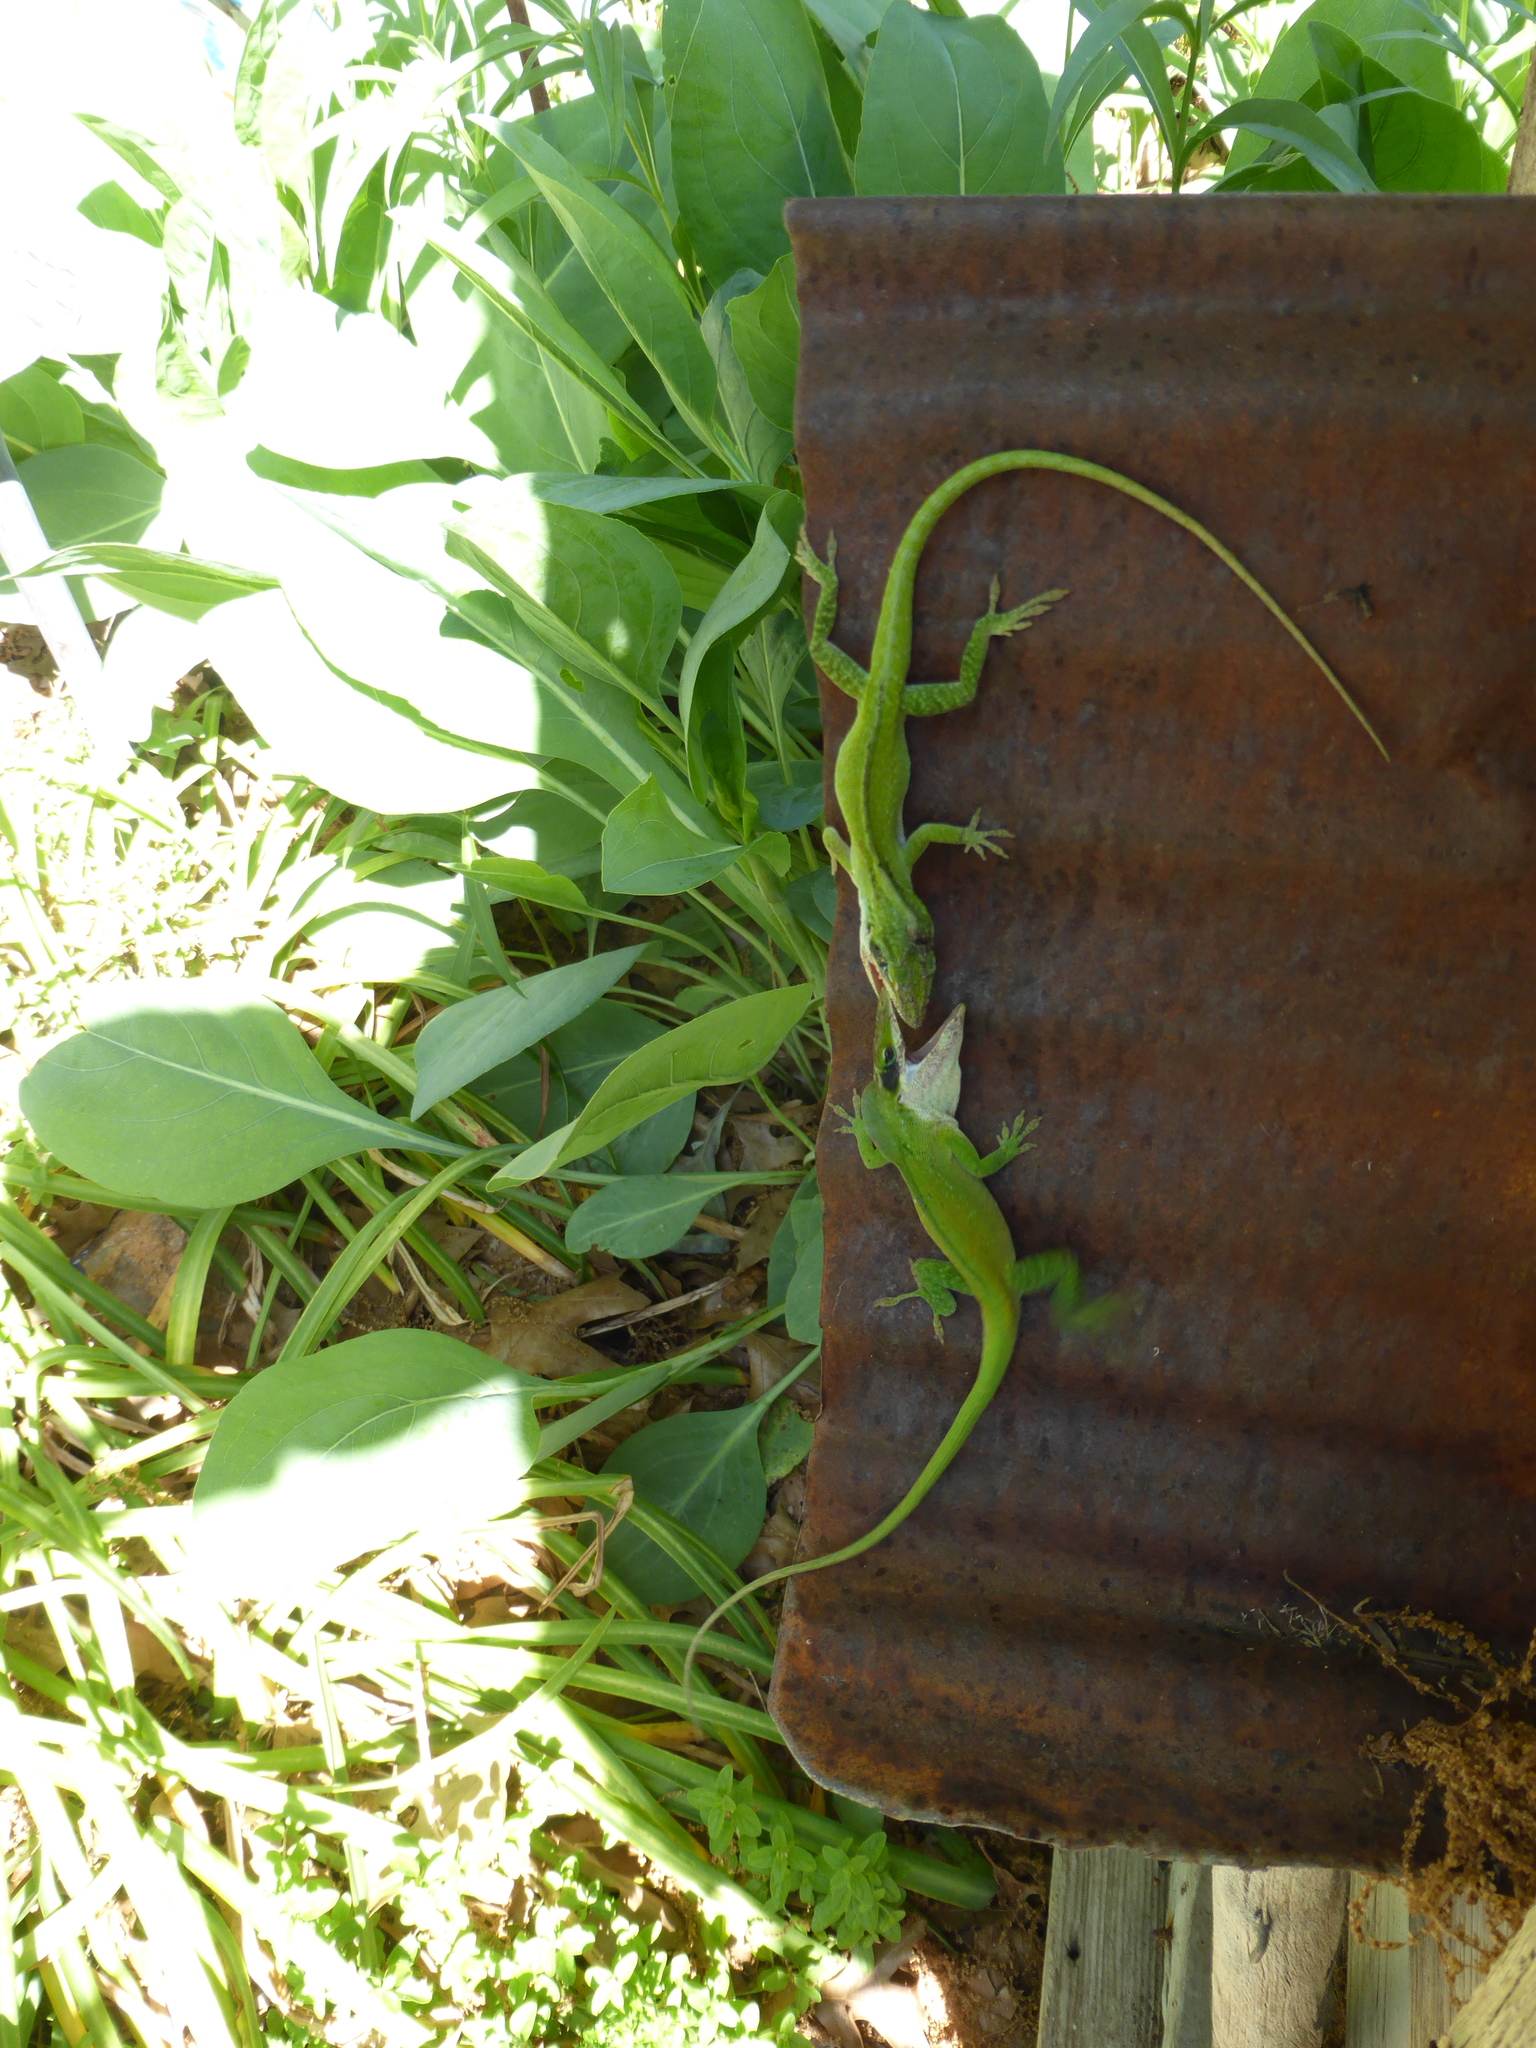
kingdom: Animalia
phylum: Chordata
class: Squamata
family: Dactyloidae
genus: Anolis
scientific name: Anolis carolinensis
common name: Green anole
